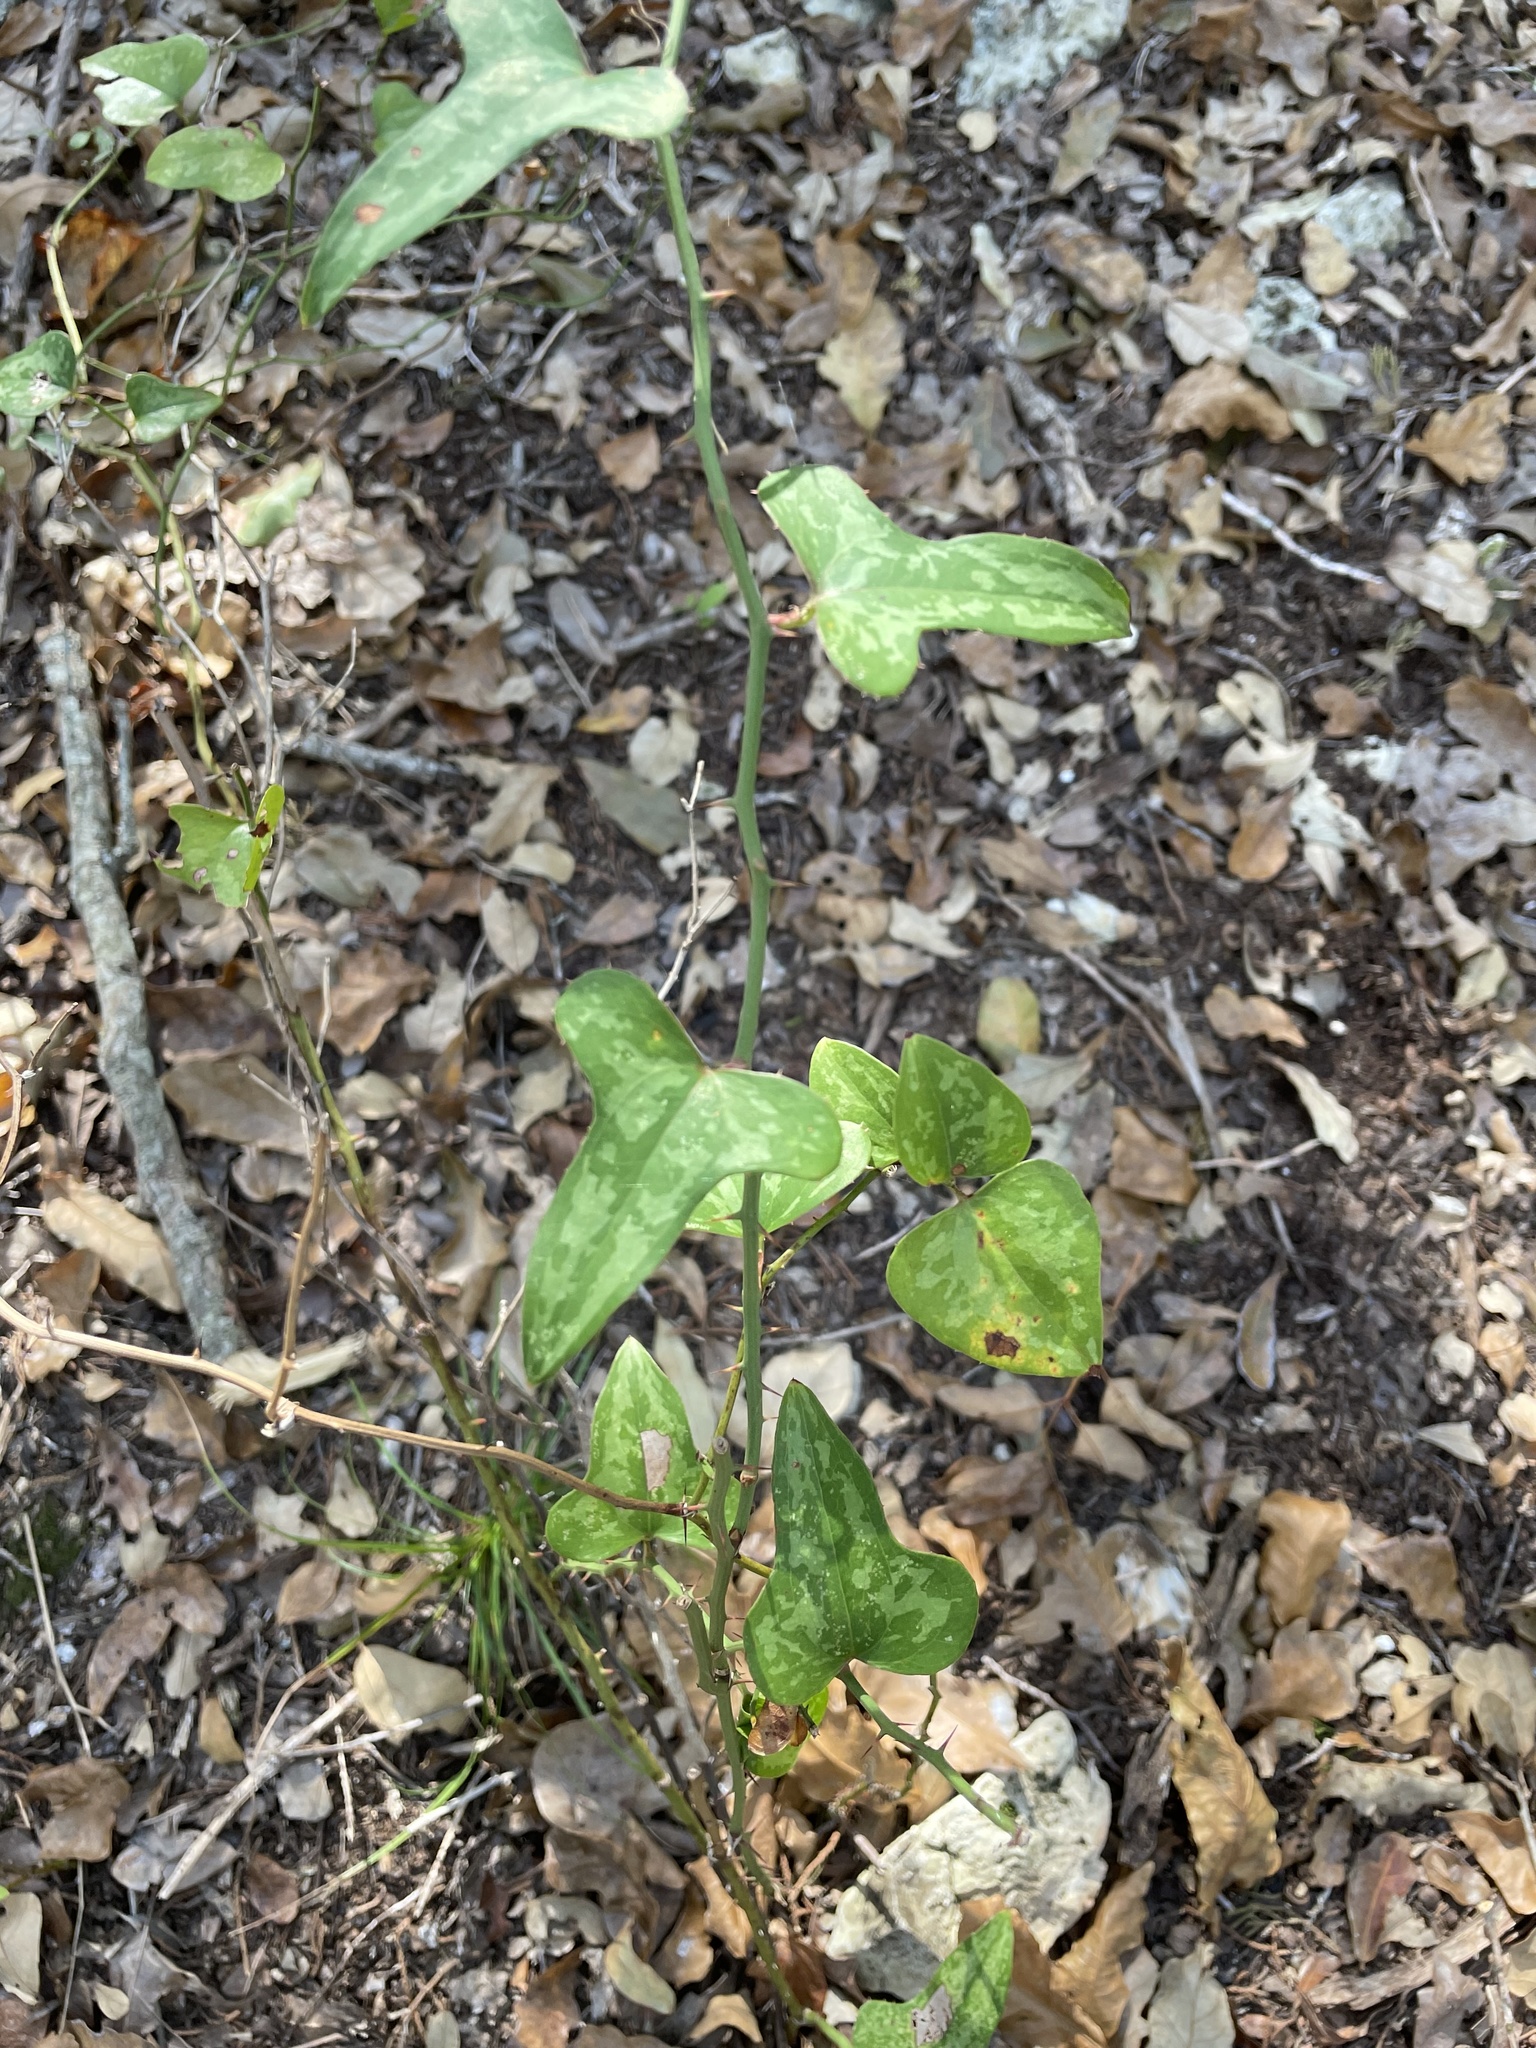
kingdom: Plantae
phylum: Tracheophyta
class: Liliopsida
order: Liliales
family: Smilacaceae
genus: Smilax
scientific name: Smilax bona-nox
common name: Catbrier
